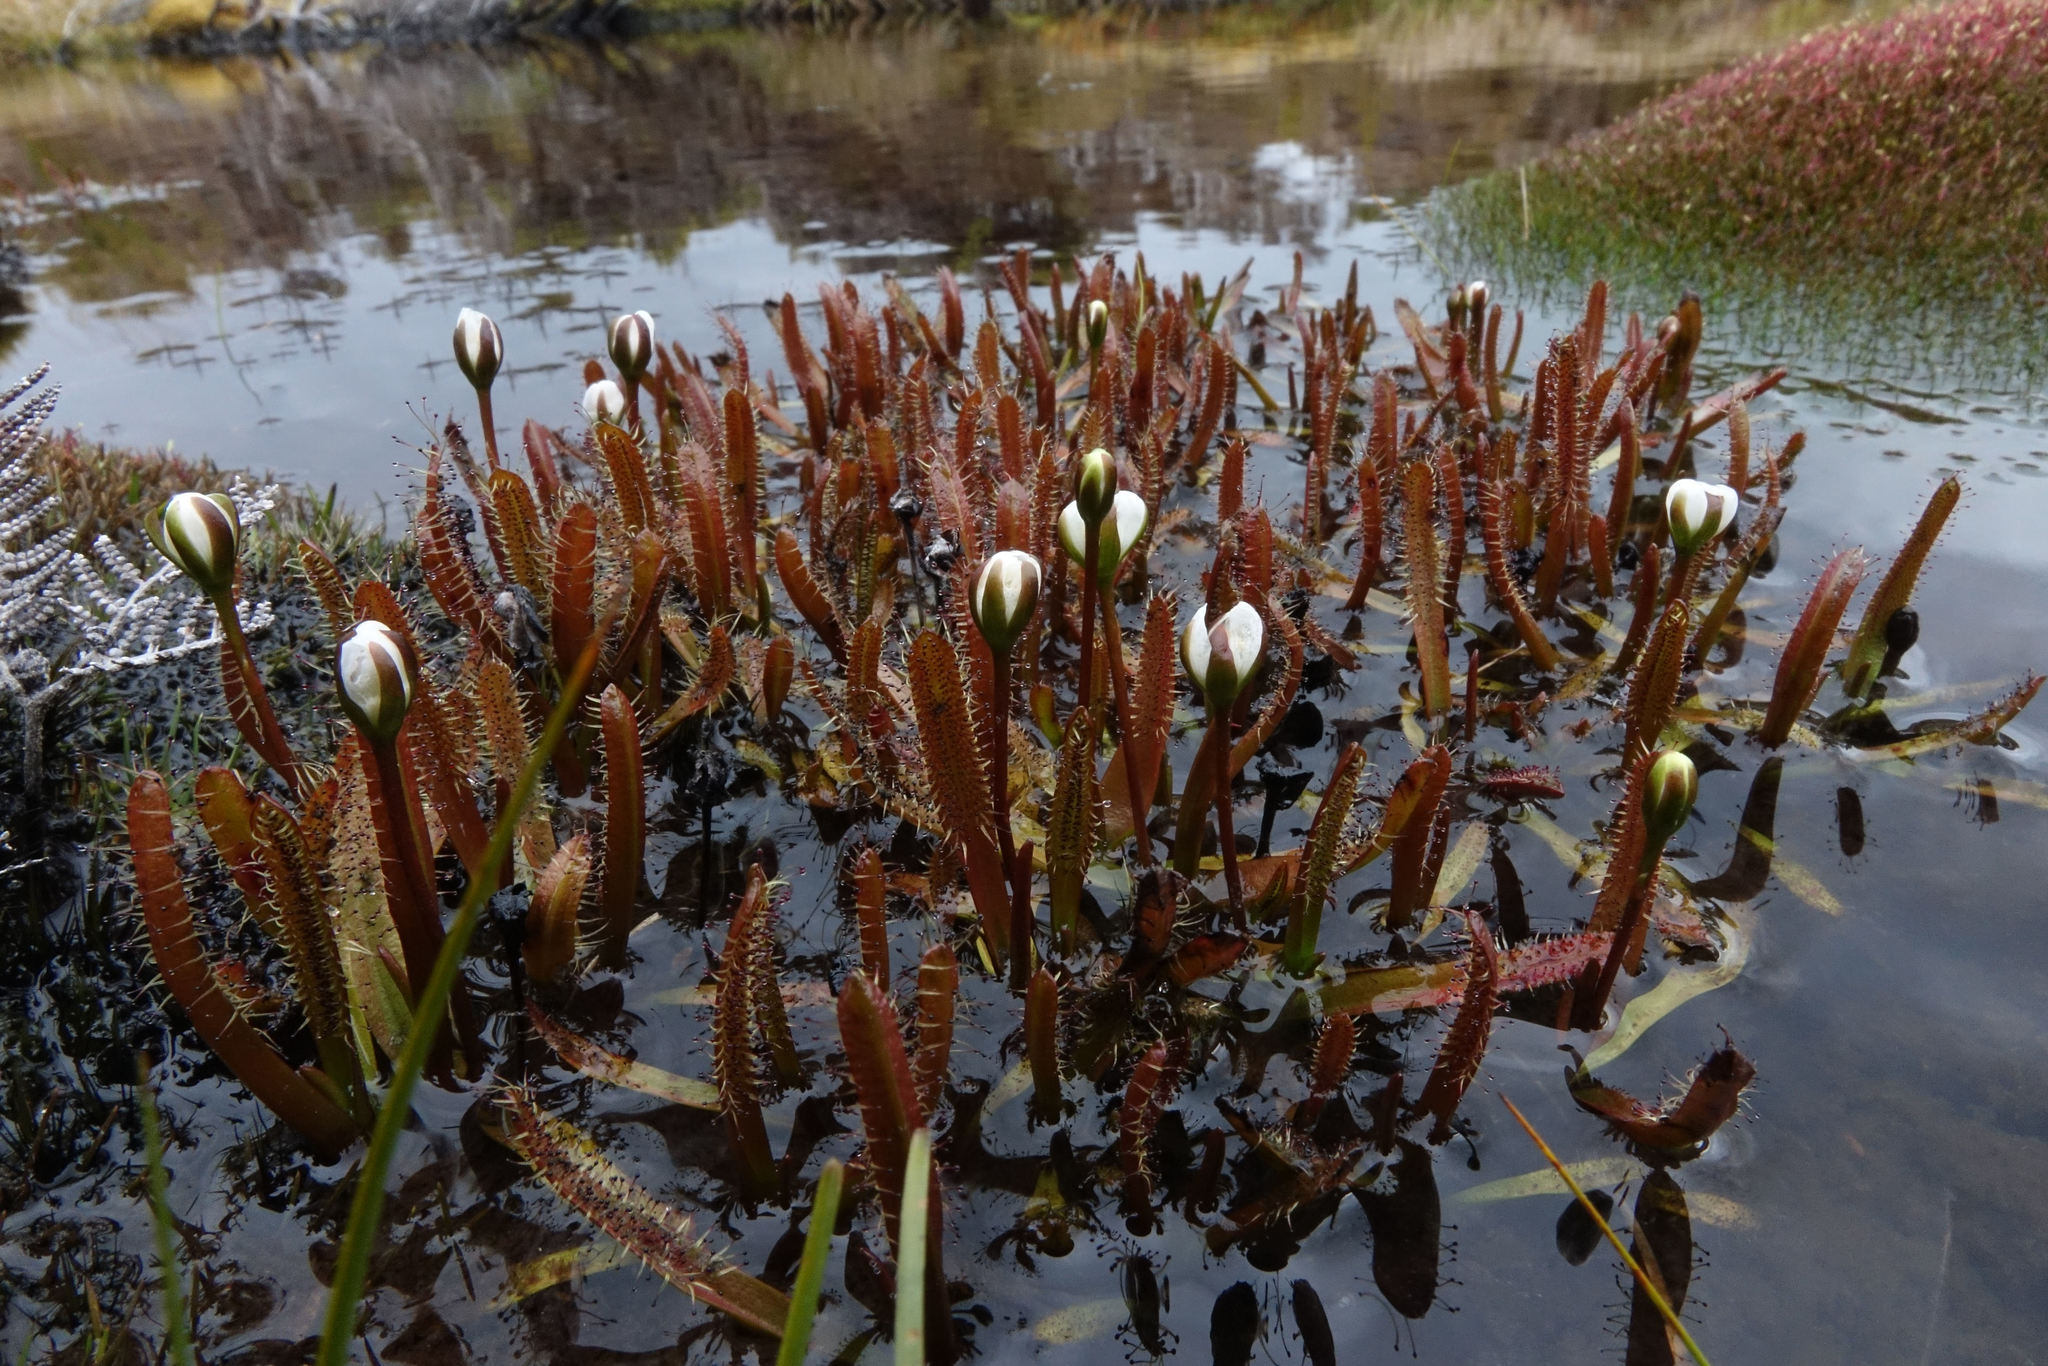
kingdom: Plantae
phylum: Tracheophyta
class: Magnoliopsida
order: Caryophyllales
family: Droseraceae
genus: Drosera
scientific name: Drosera arcturi
